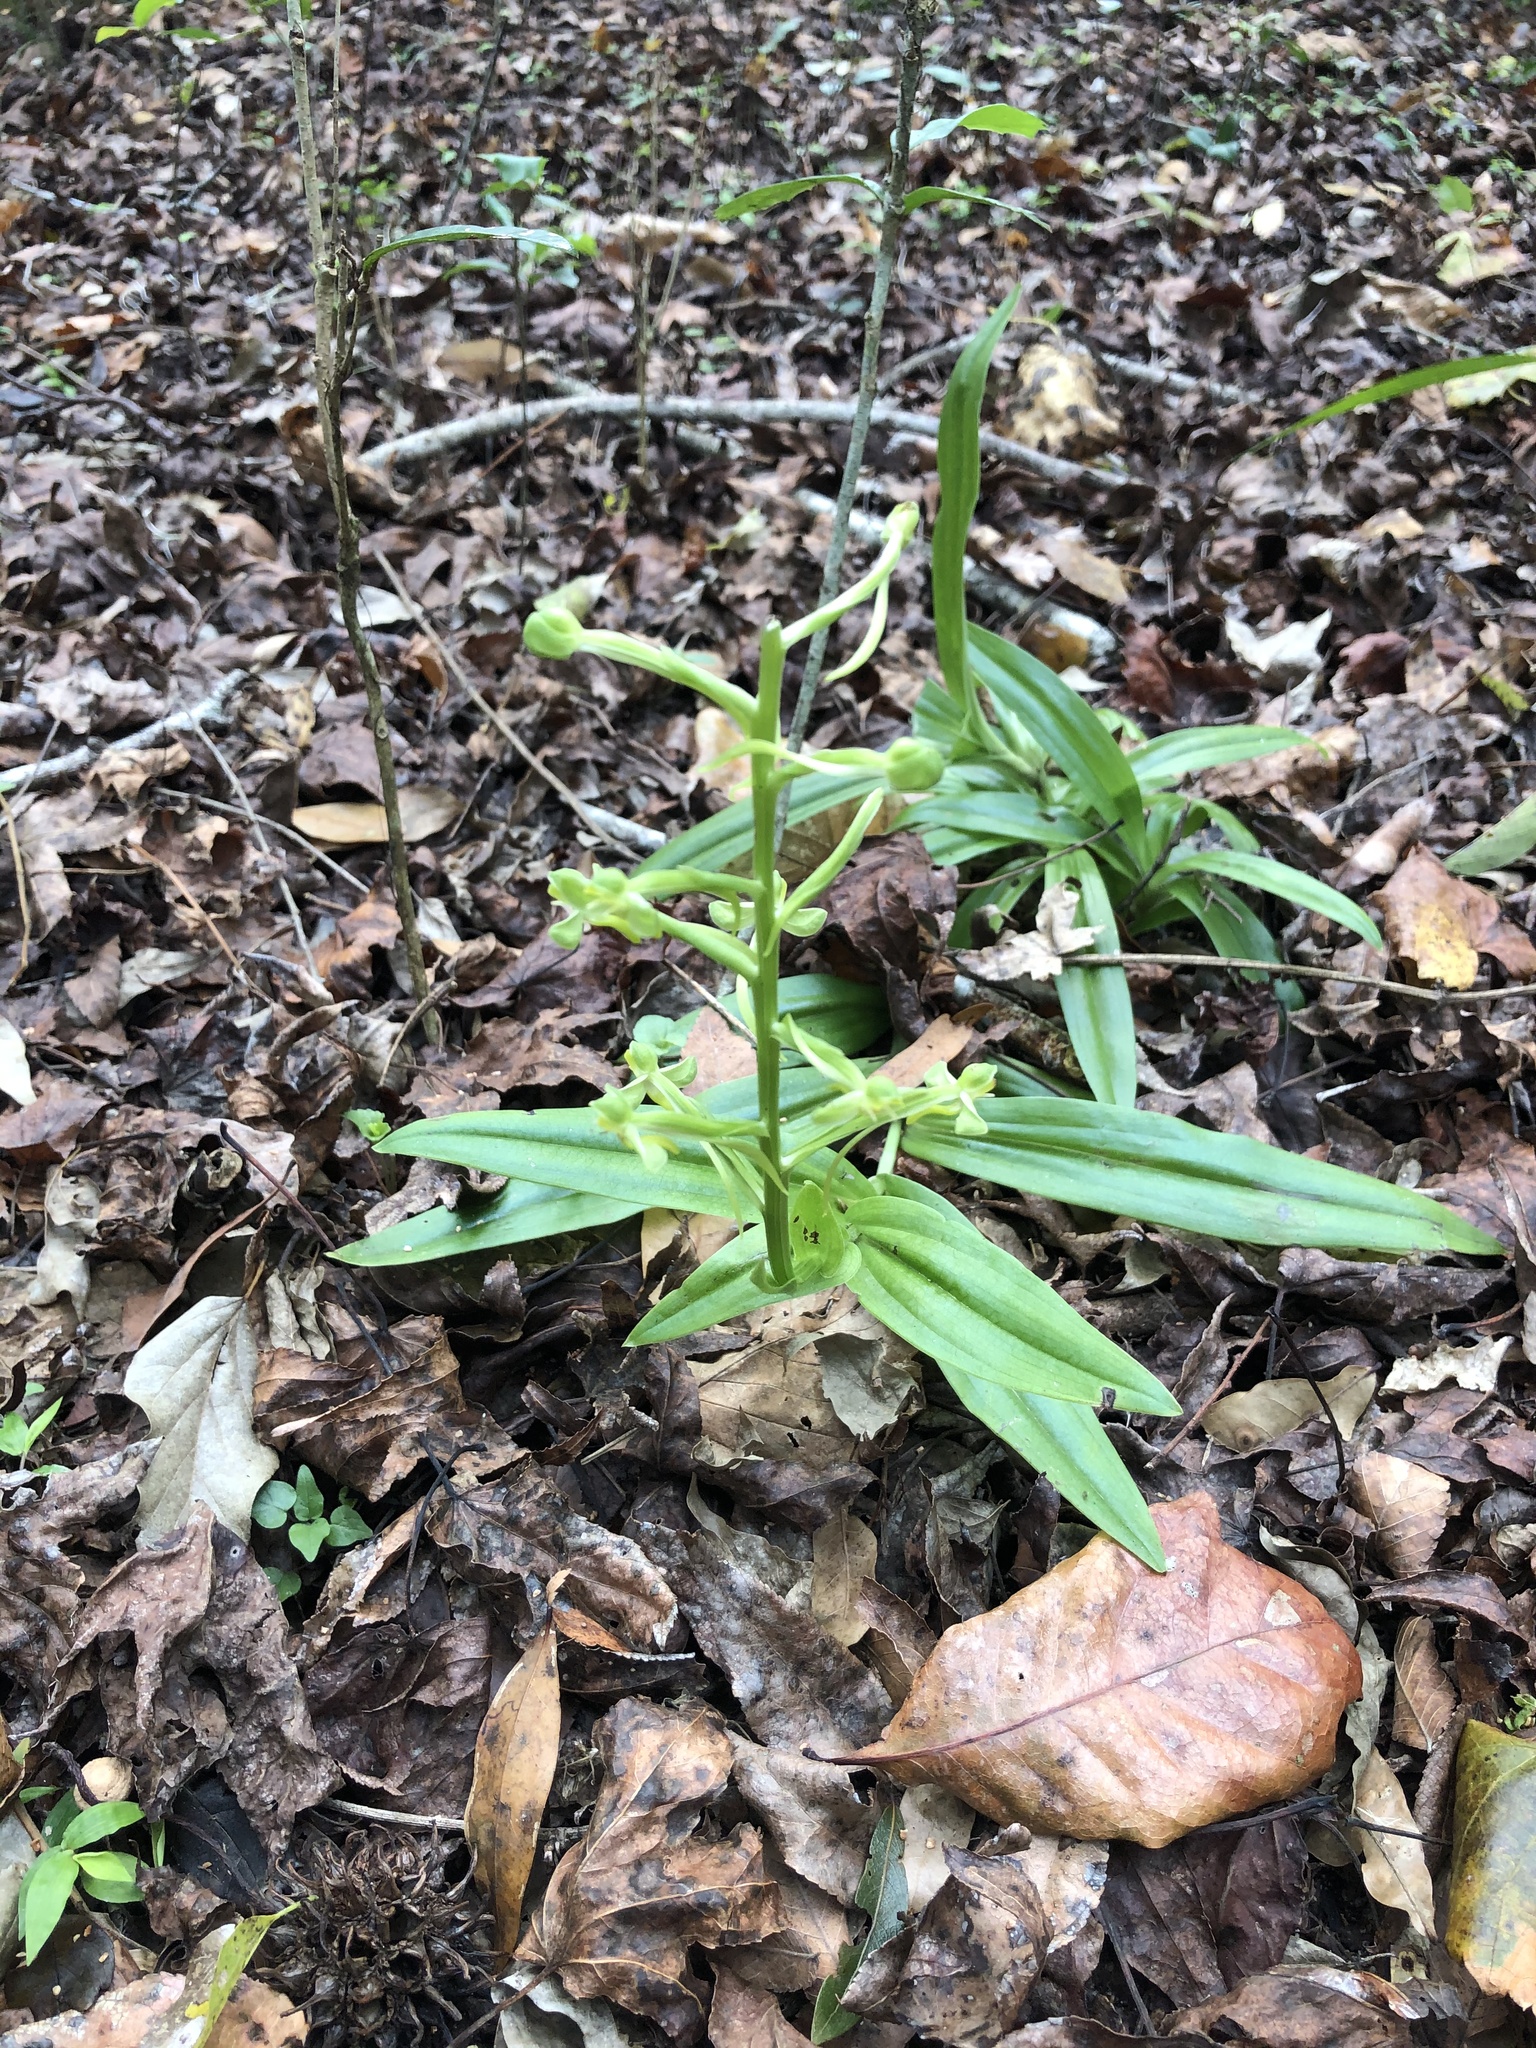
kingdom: Plantae
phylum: Tracheophyta
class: Liliopsida
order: Asparagales
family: Orchidaceae
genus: Habenaria
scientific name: Habenaria floribunda
